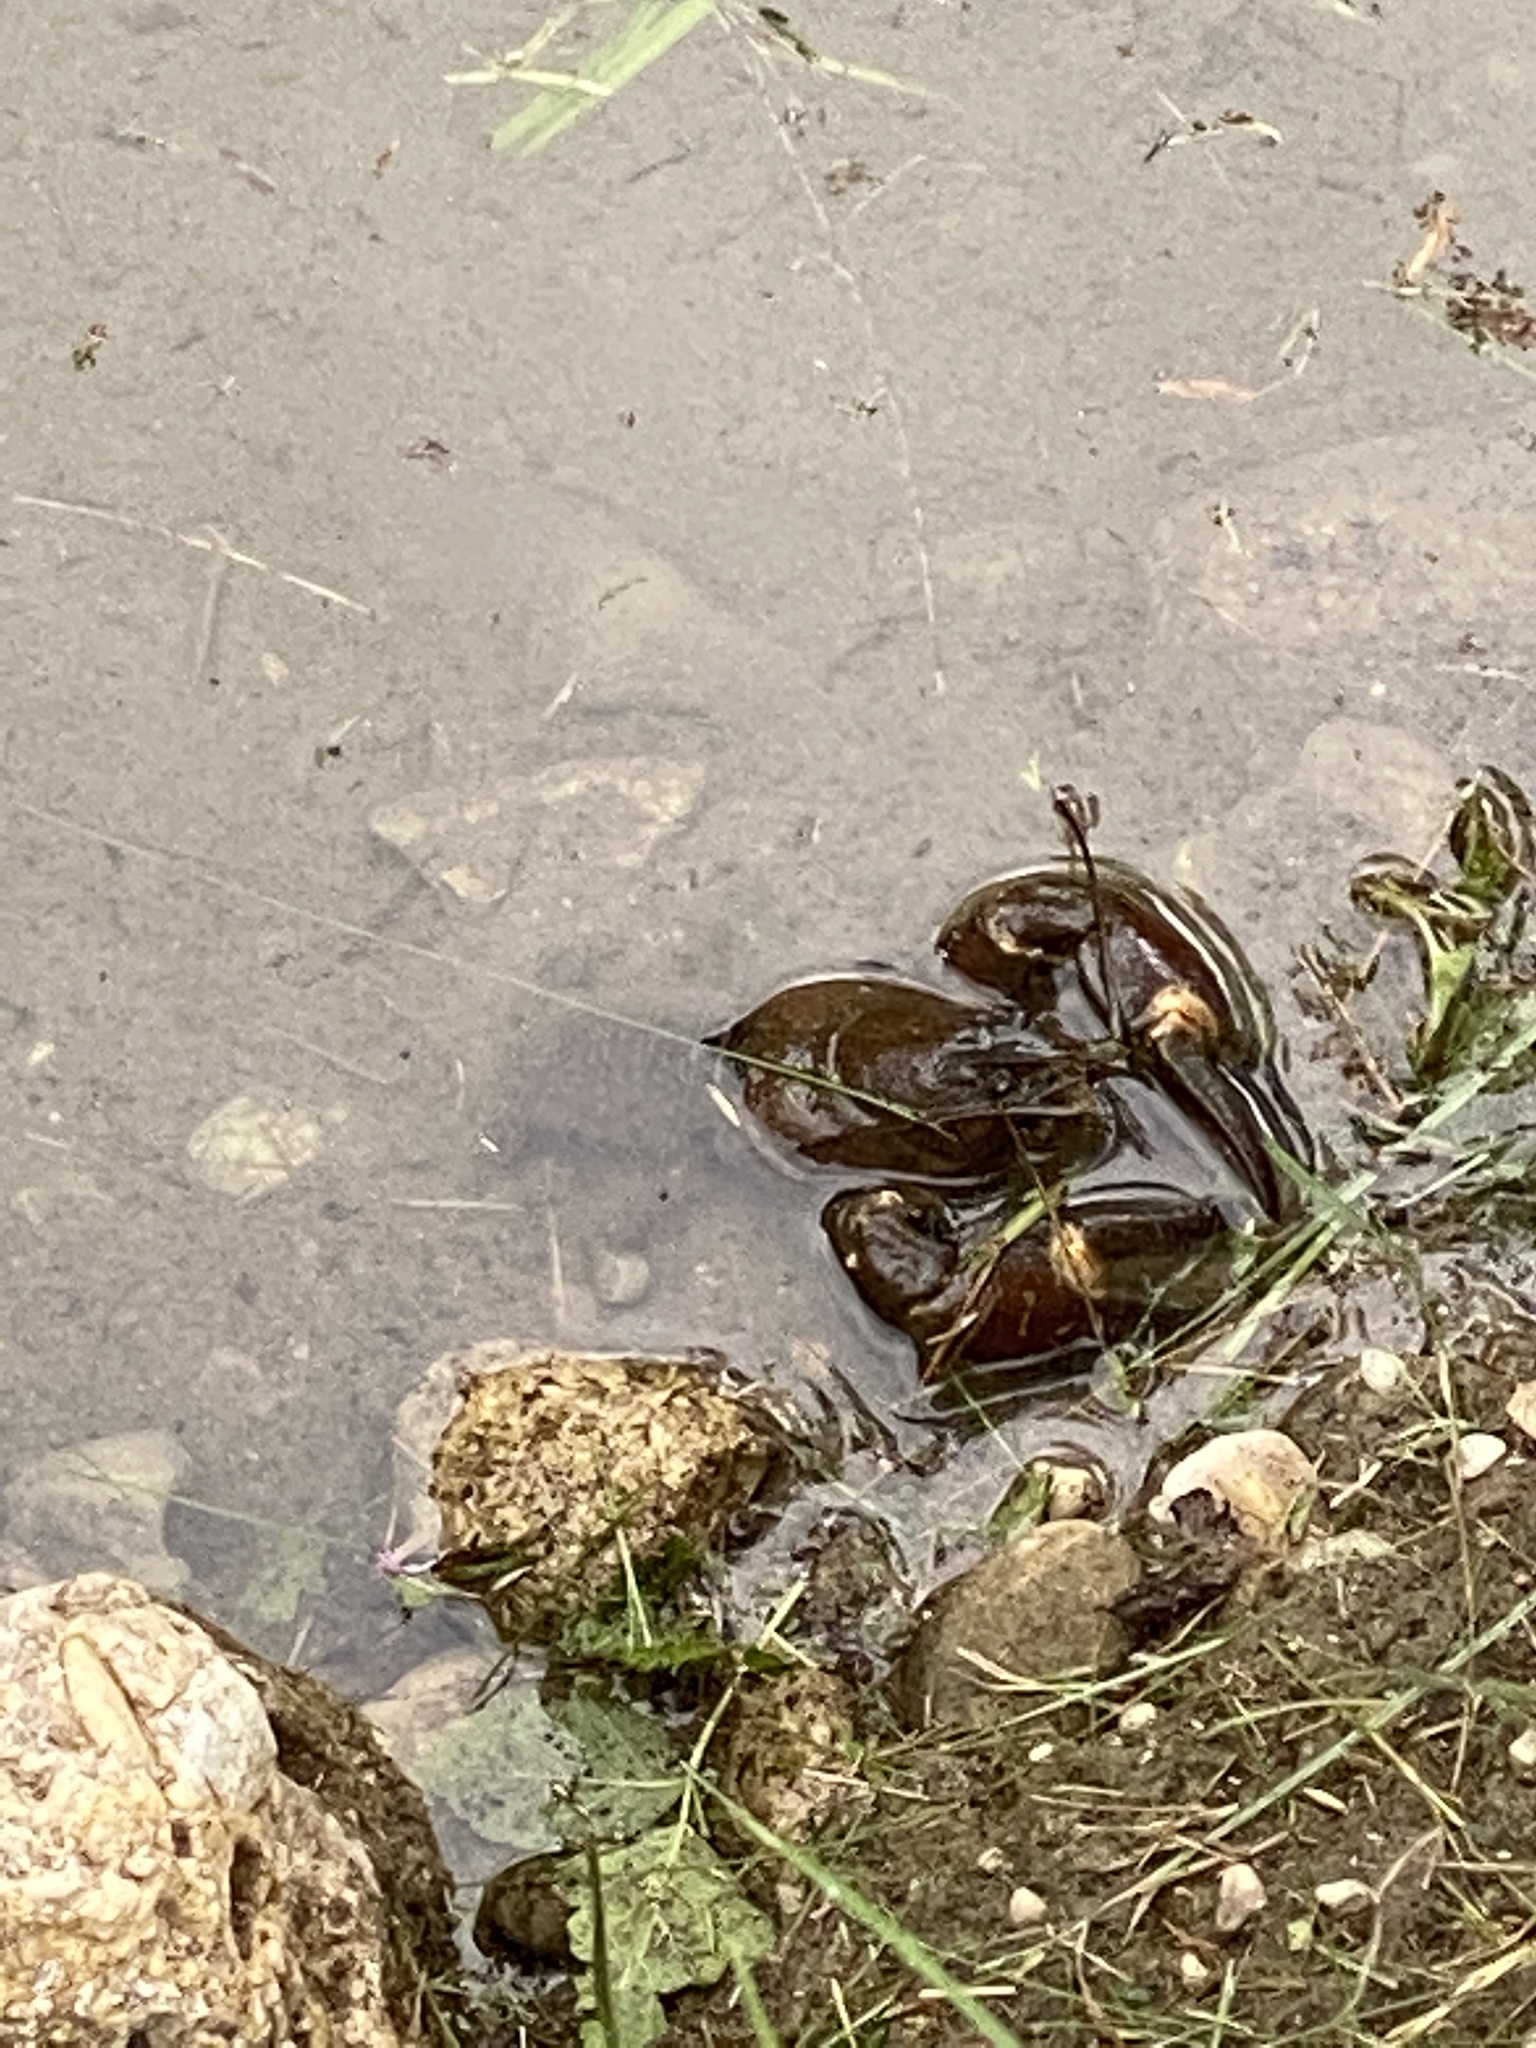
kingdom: Animalia
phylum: Arthropoda
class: Malacostraca
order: Decapoda
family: Astacidae
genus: Pacifastacus
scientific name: Pacifastacus leniusculus
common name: Signal crayfish
